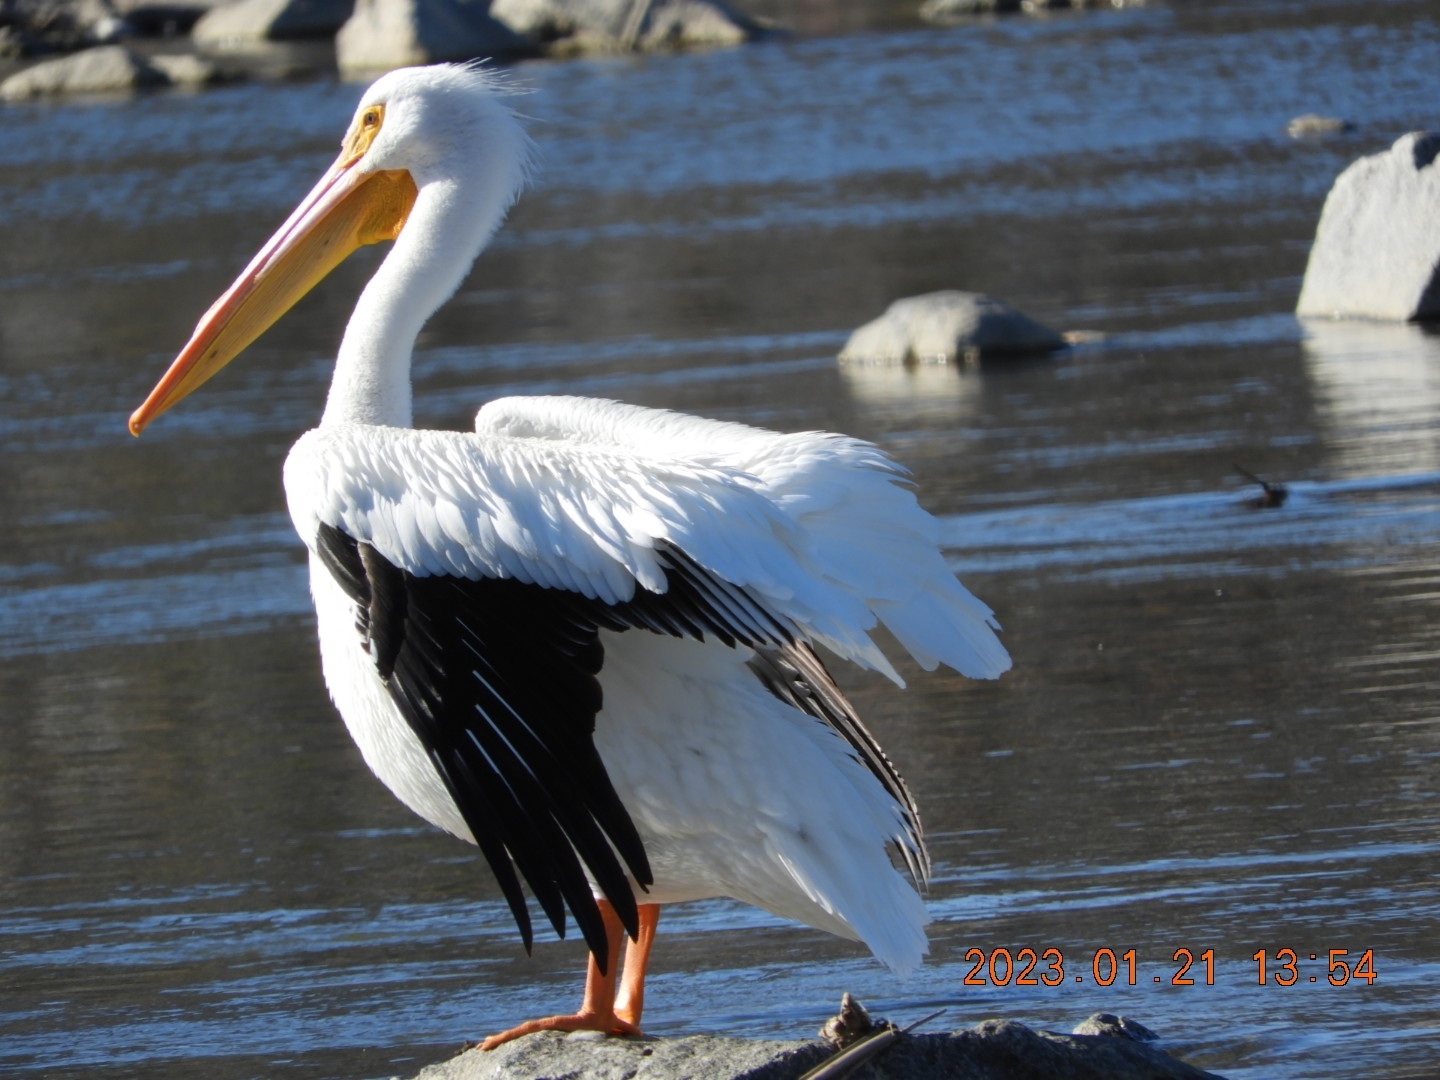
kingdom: Animalia
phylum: Chordata
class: Aves
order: Pelecaniformes
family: Pelecanidae
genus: Pelecanus
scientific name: Pelecanus erythrorhynchos
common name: American white pelican
